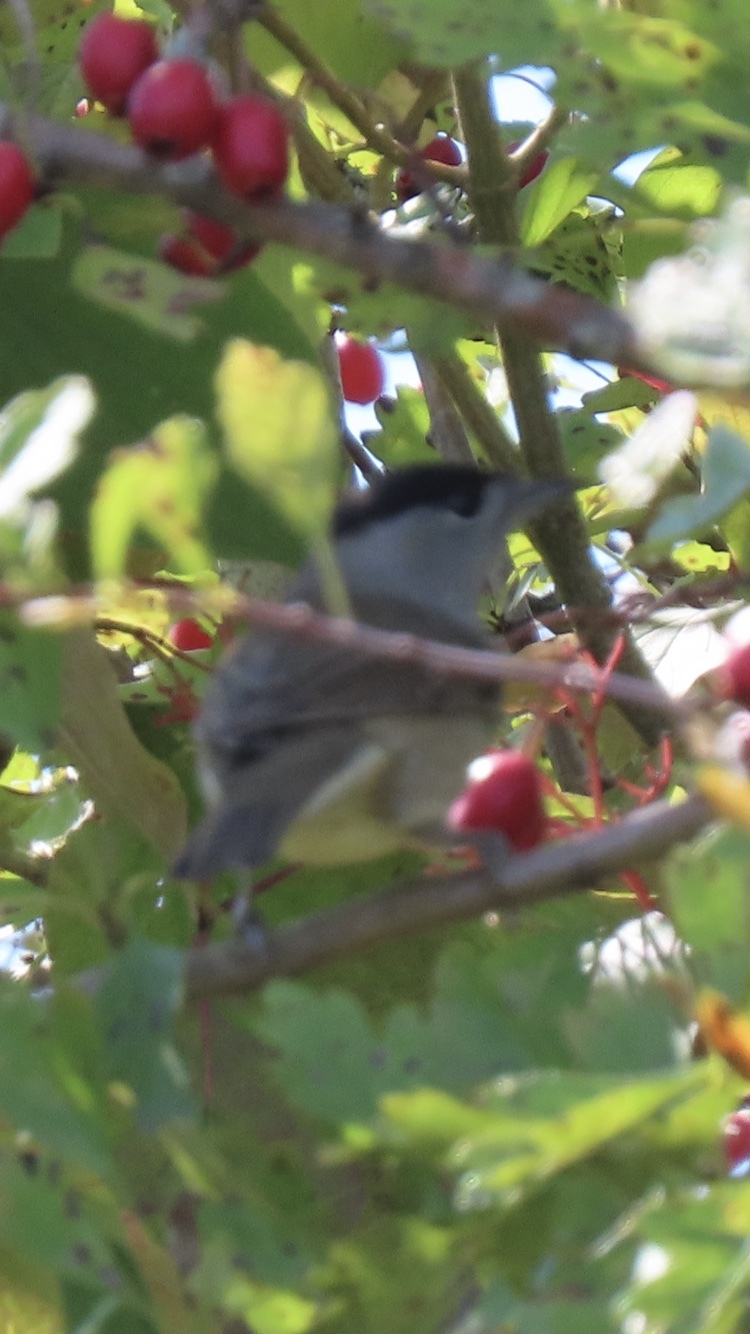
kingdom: Animalia
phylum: Chordata
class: Aves
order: Passeriformes
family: Sylviidae
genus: Sylvia
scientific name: Sylvia atricapilla
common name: Eurasian blackcap
